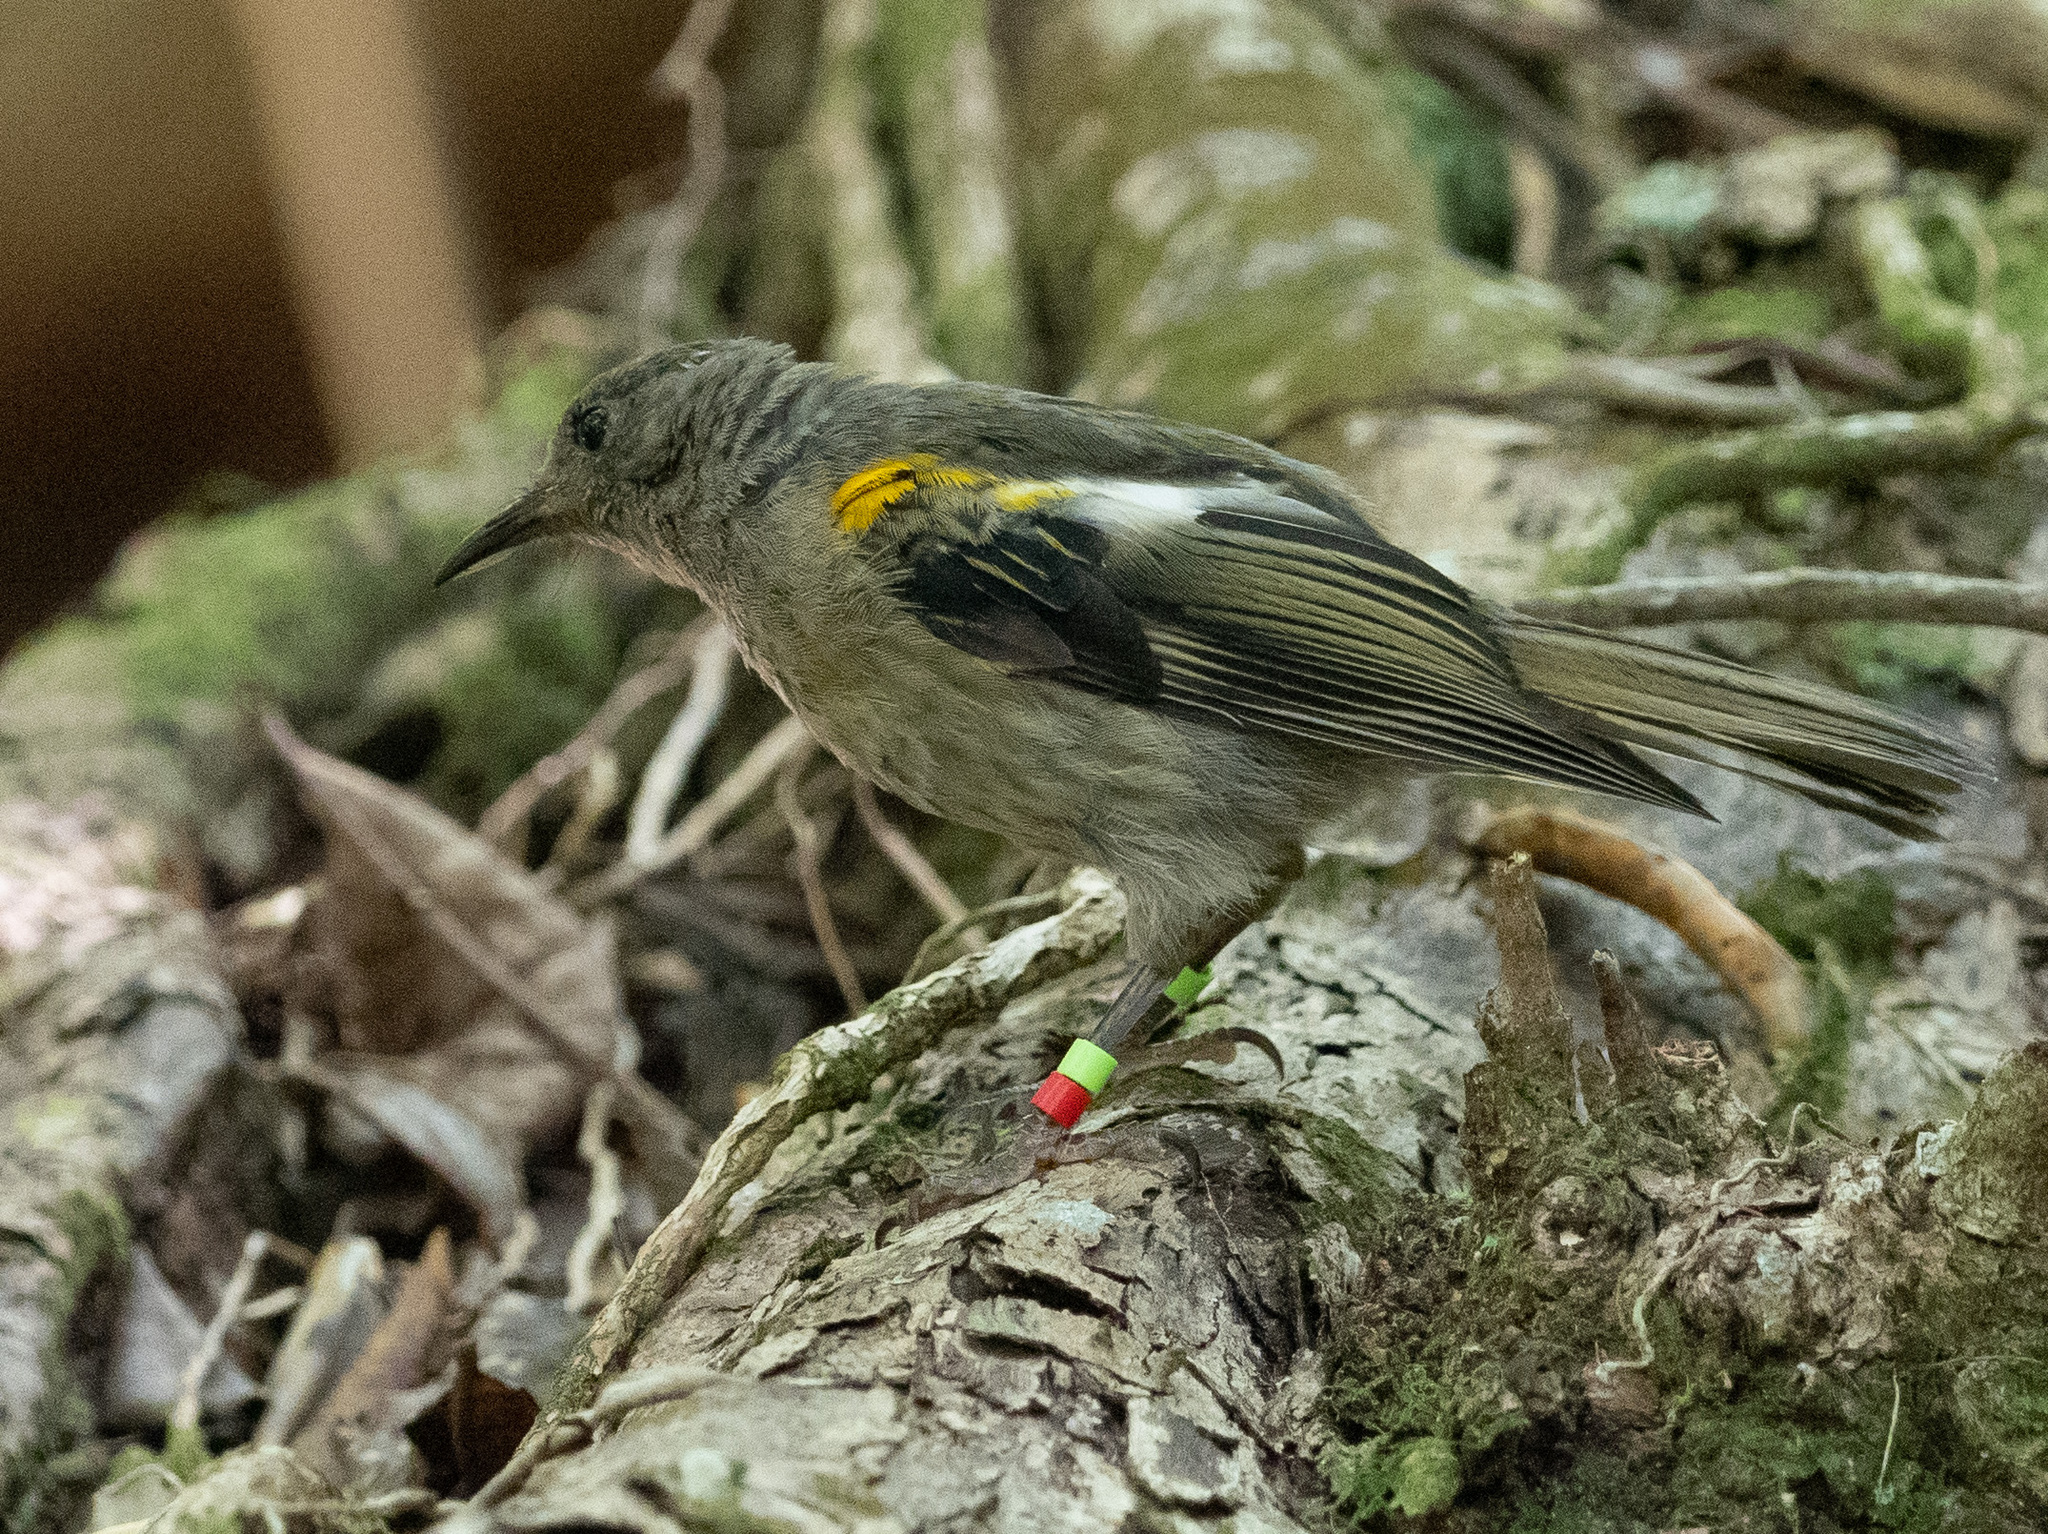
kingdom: Animalia
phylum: Chordata
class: Aves
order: Passeriformes
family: Notiomystidae
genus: Notiomystis
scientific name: Notiomystis cincta
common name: Stitchbird
